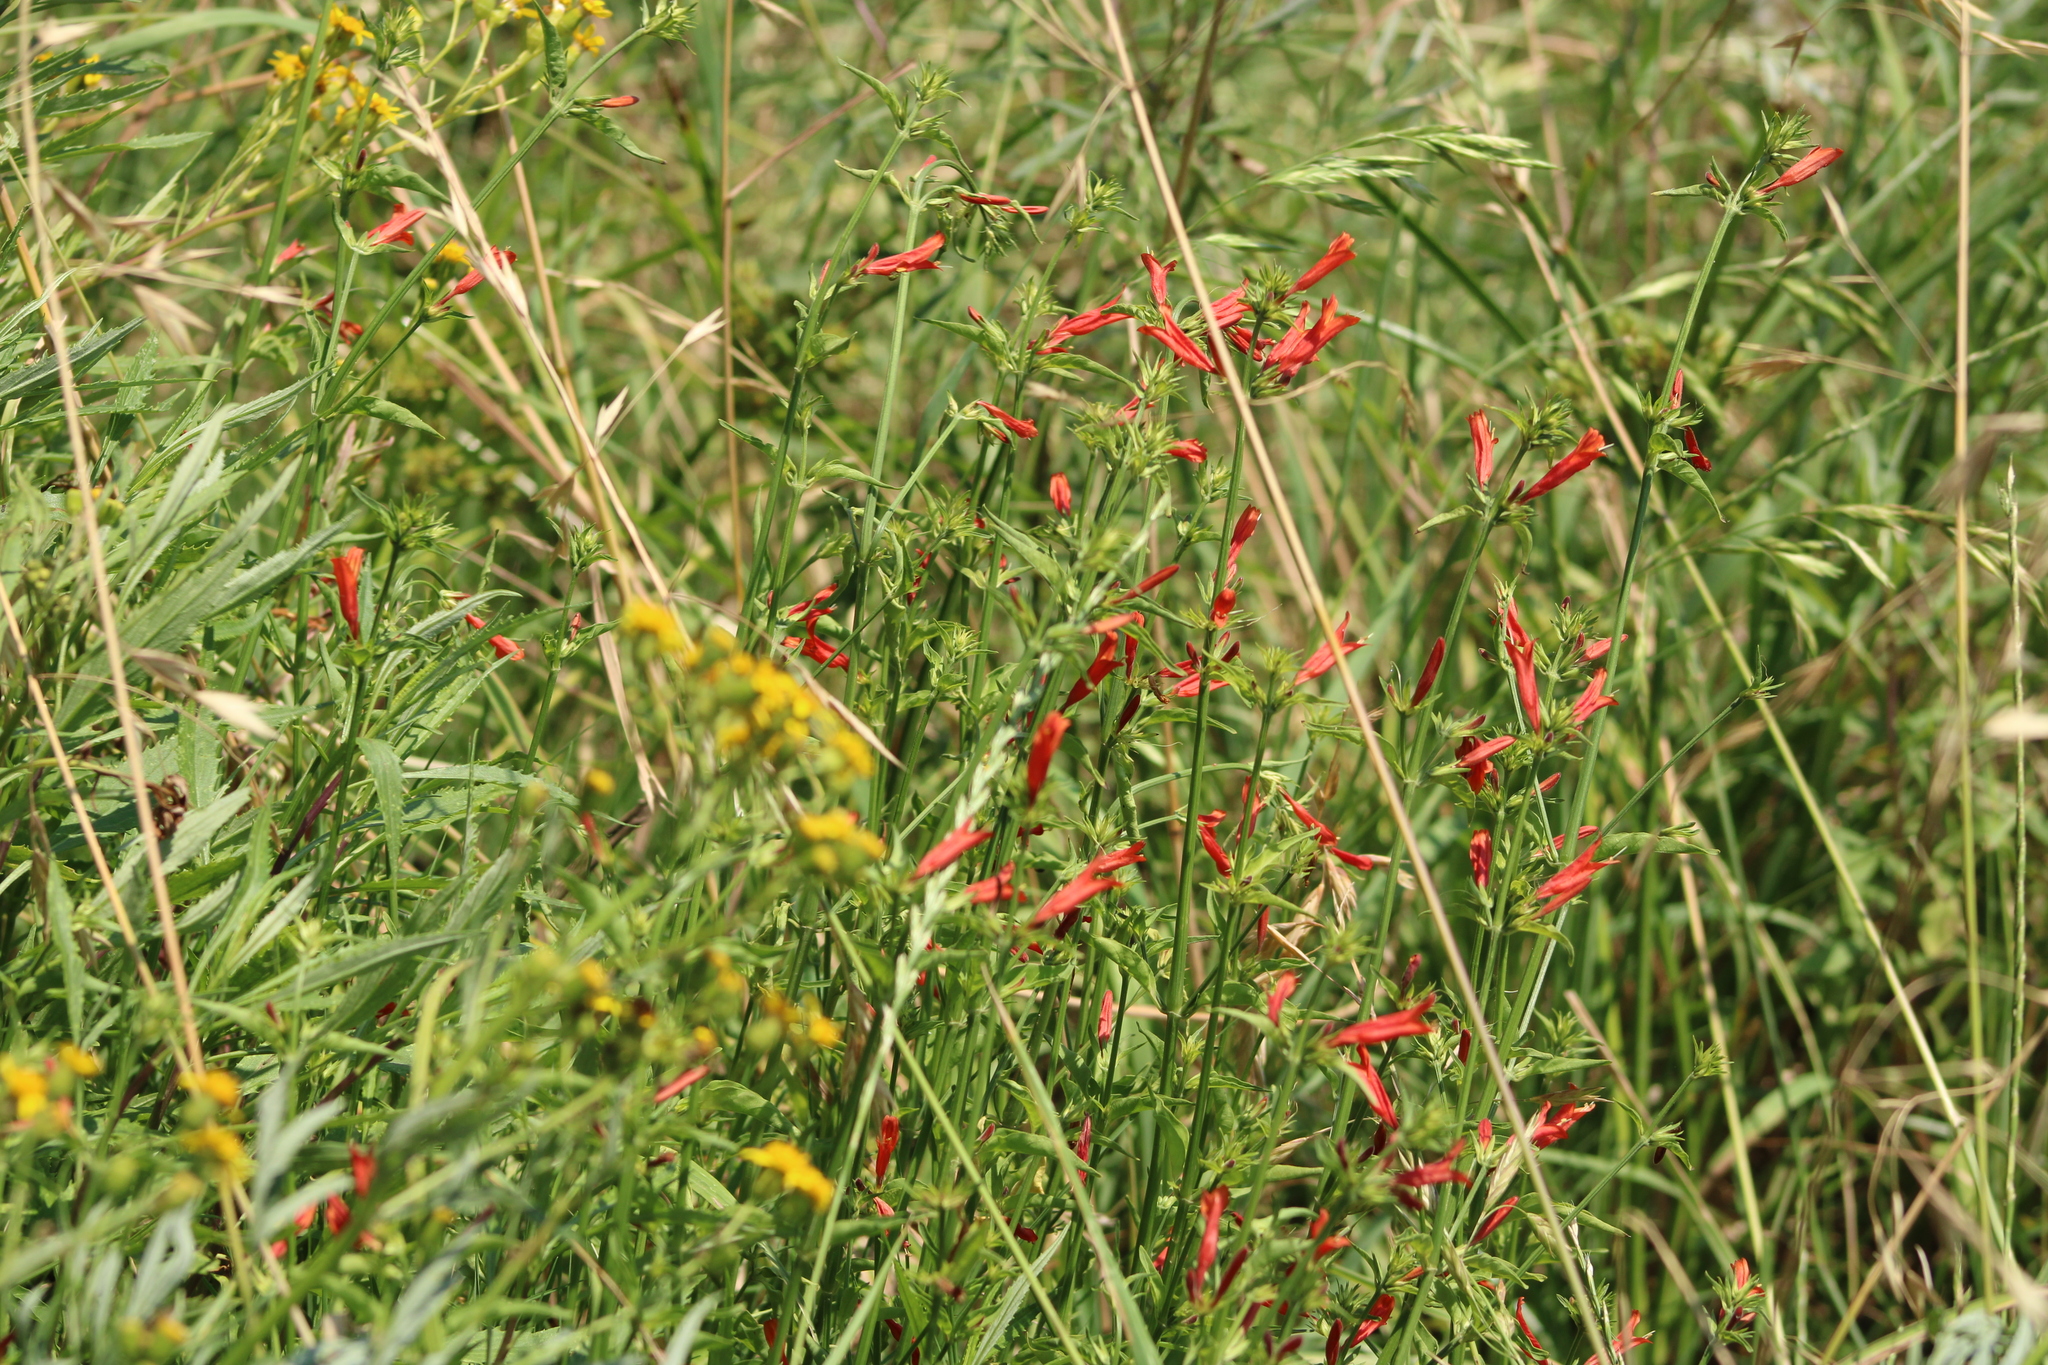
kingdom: Plantae
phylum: Tracheophyta
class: Magnoliopsida
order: Lamiales
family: Acanthaceae
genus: Dicliptera
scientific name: Dicliptera squarrosa
